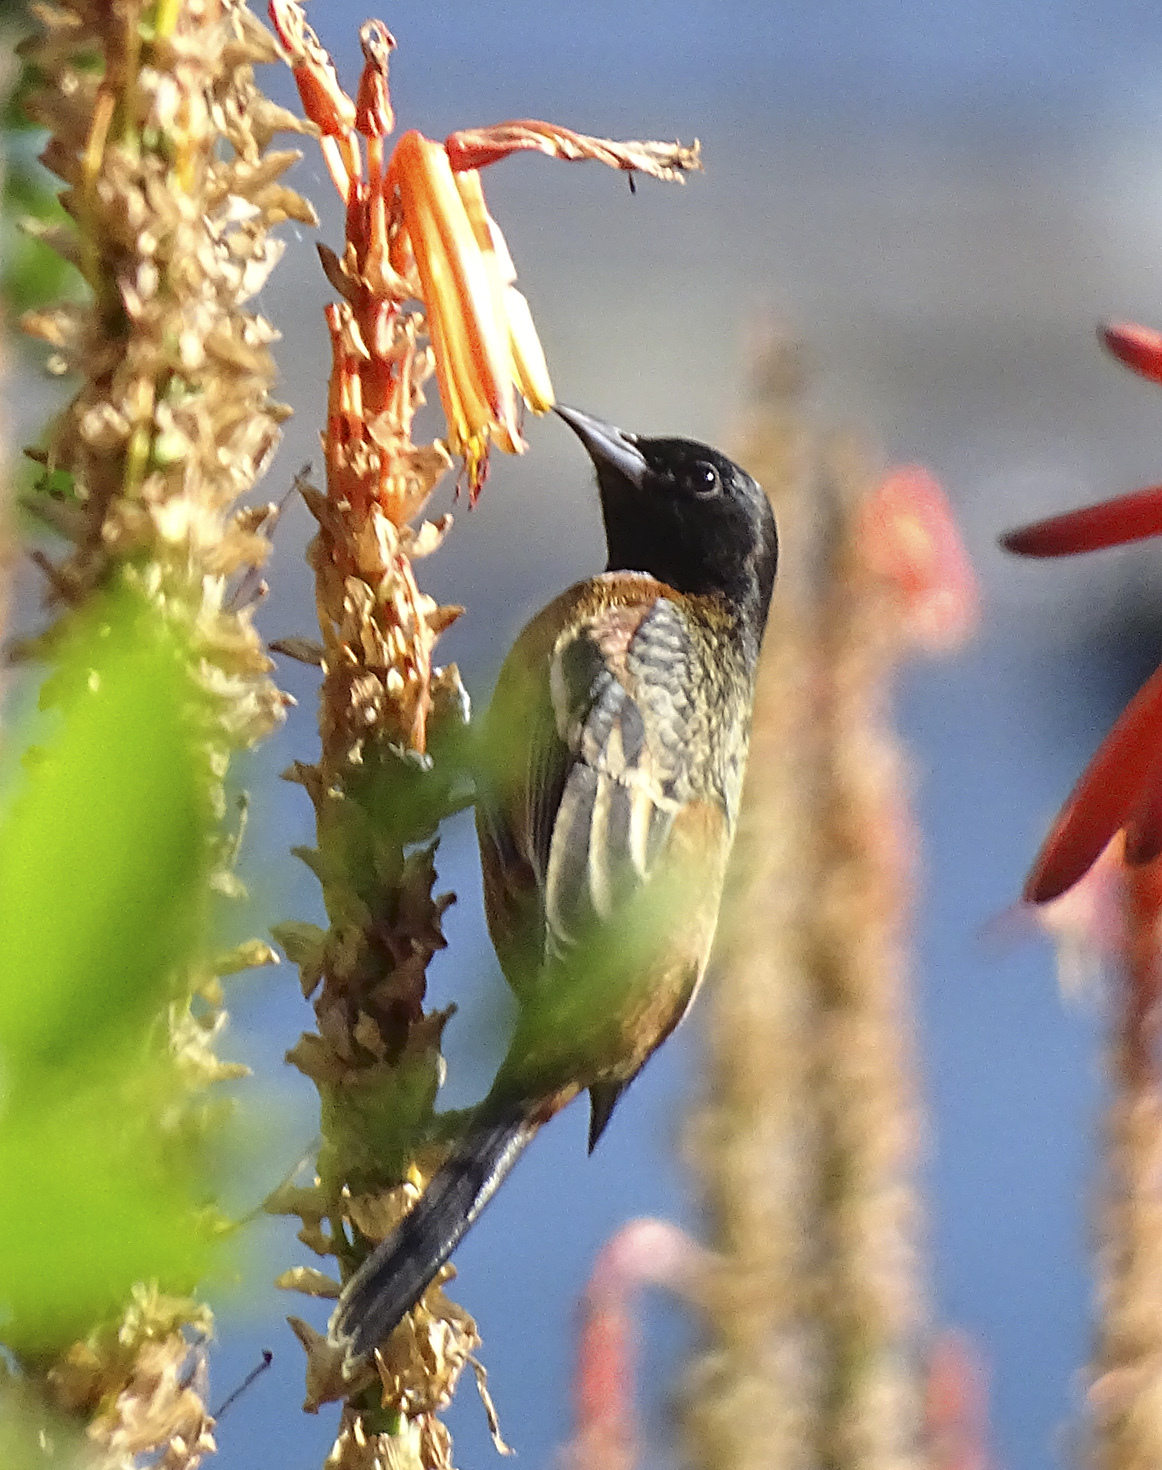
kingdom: Animalia
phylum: Chordata
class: Aves
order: Passeriformes
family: Icteridae
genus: Icterus
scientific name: Icterus spurius
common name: Orchard oriole
